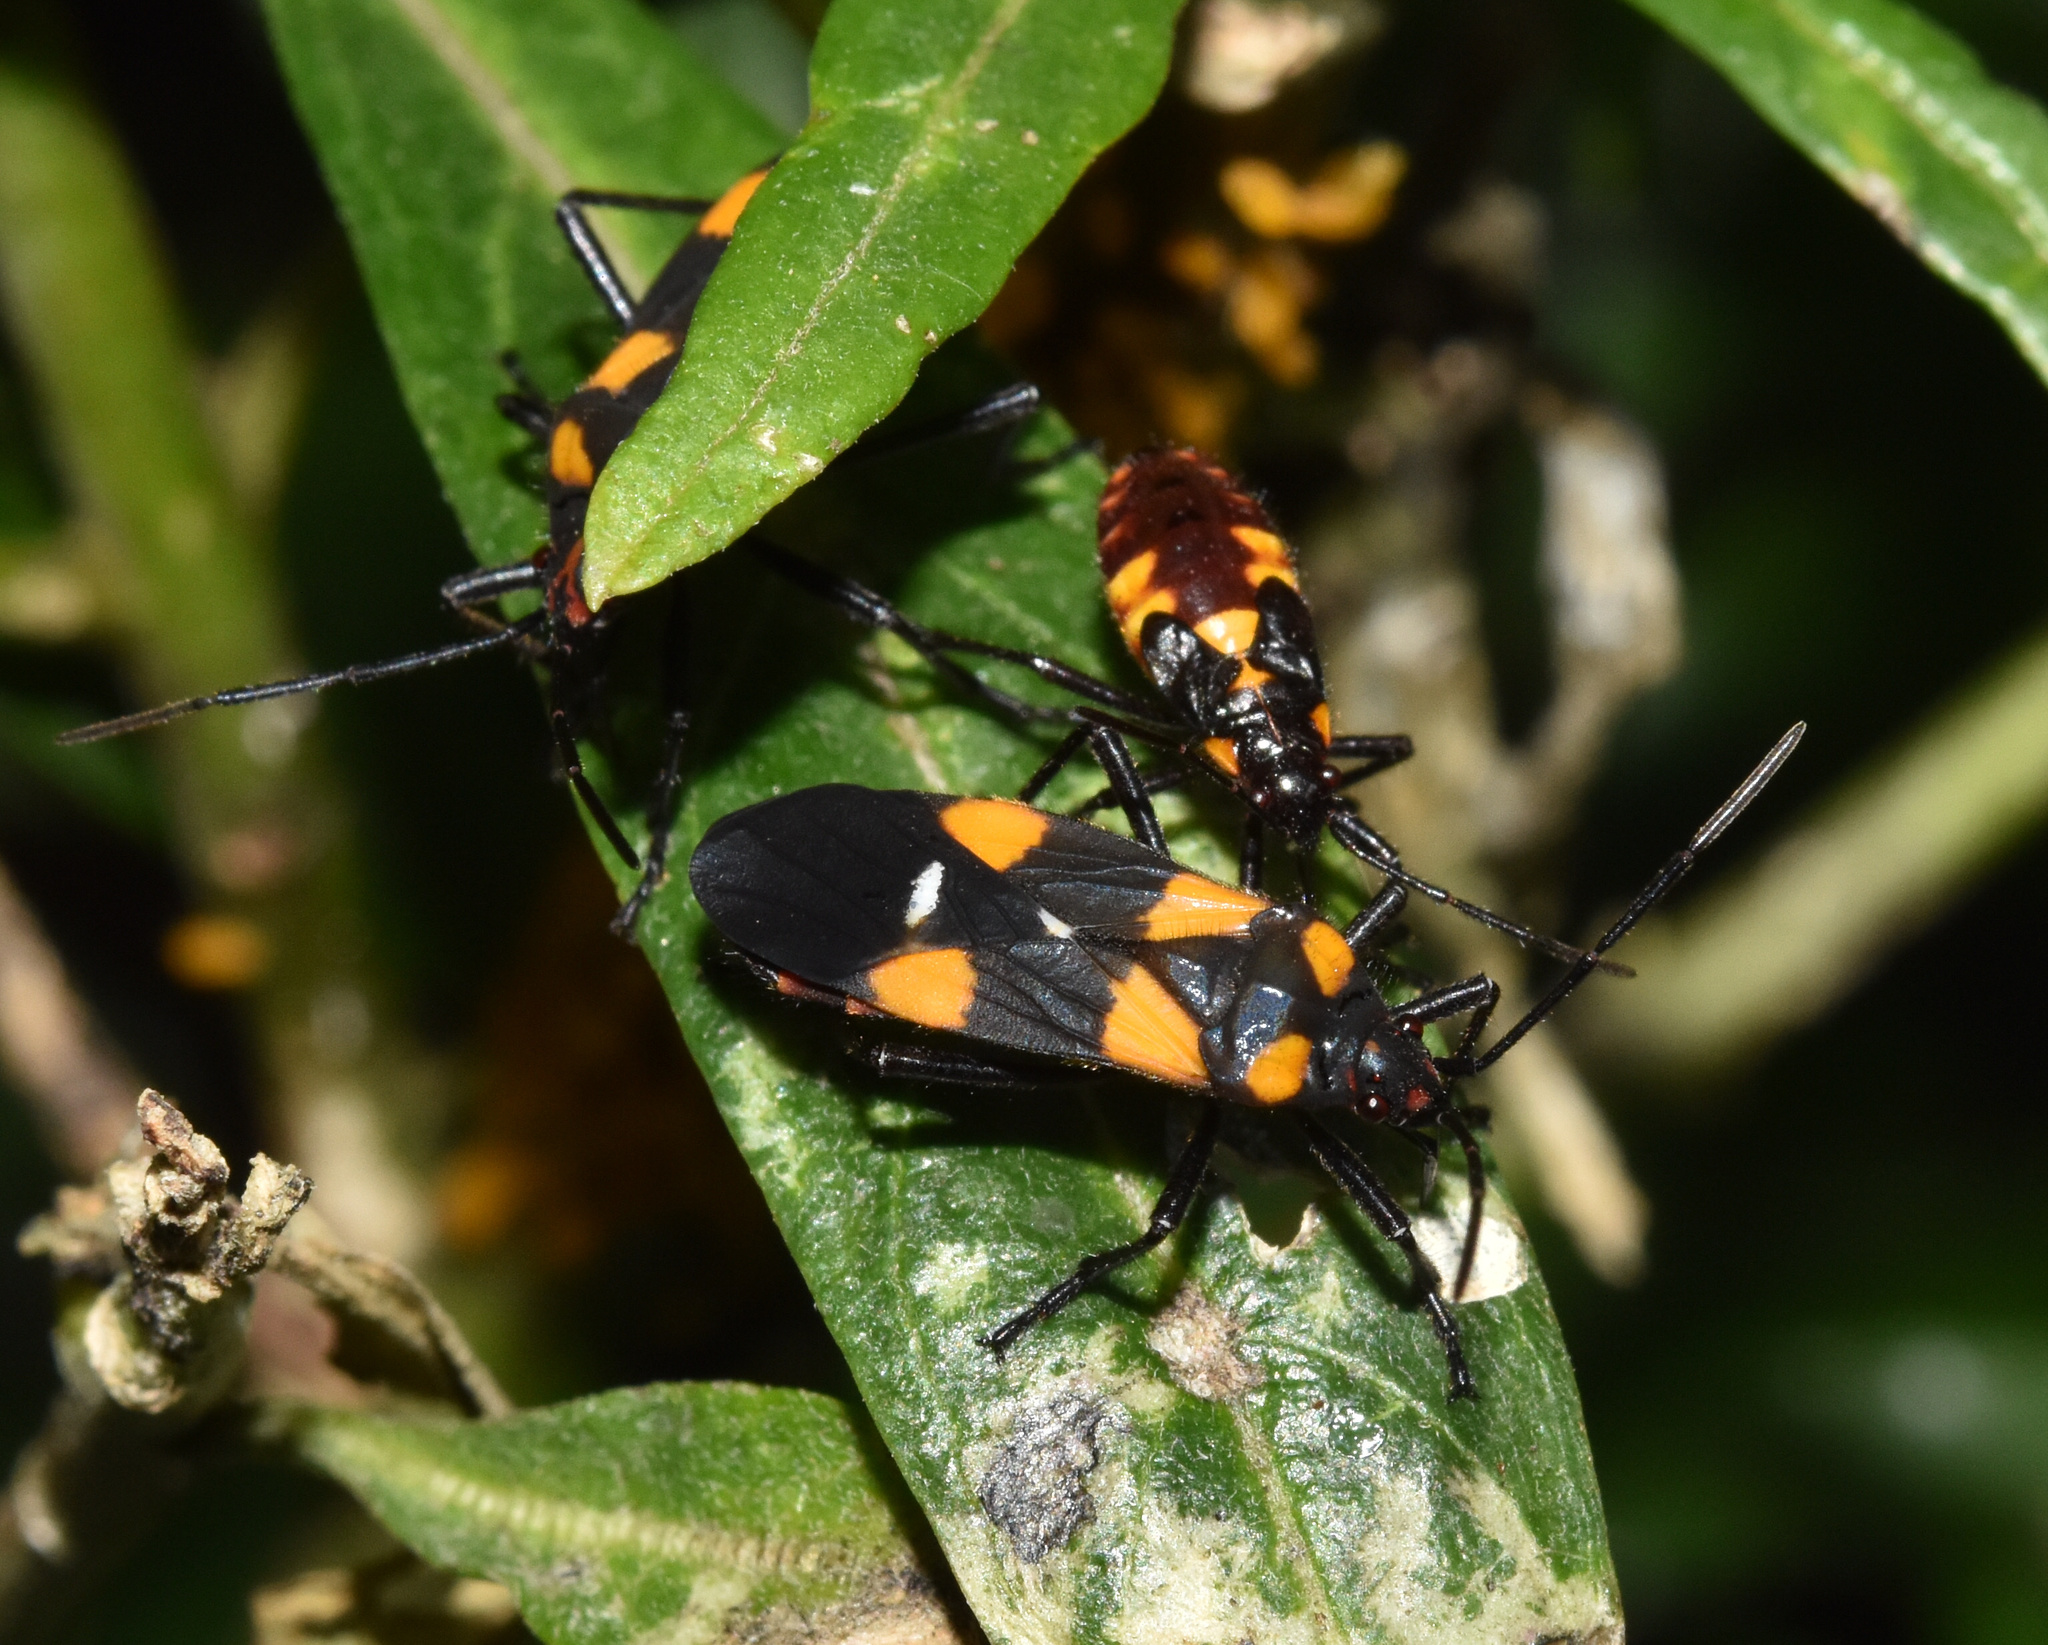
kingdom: Animalia
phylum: Arthropoda
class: Insecta
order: Hemiptera
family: Lygaeidae
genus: Oncopeltus
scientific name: Oncopeltus famelicus
